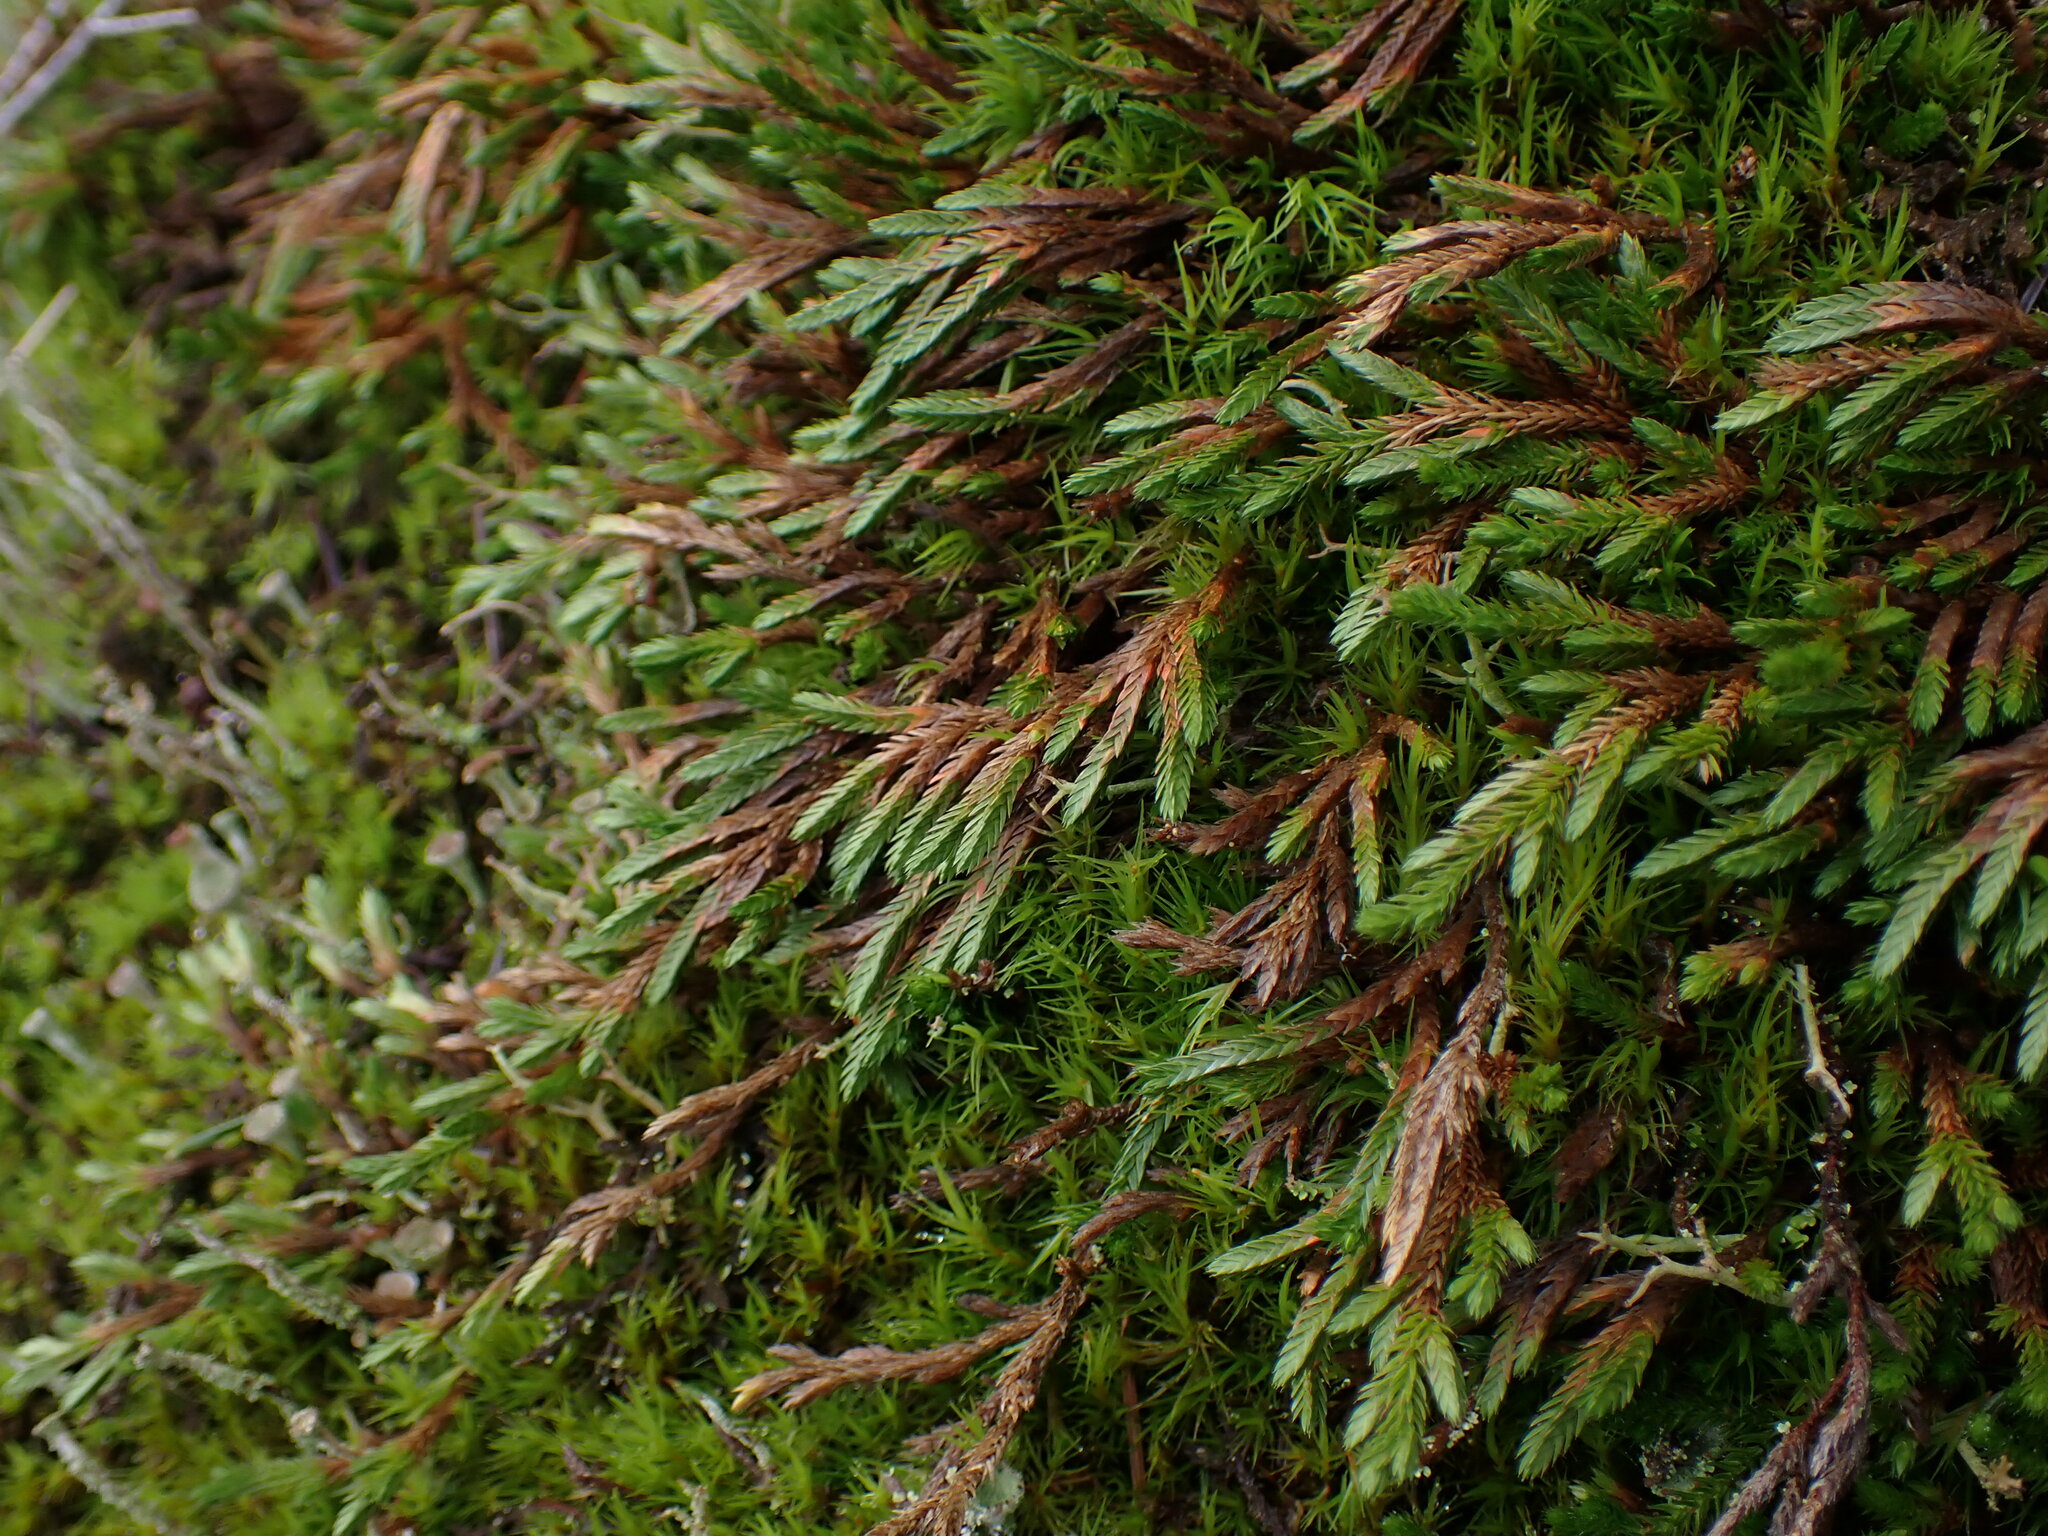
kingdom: Plantae
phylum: Tracheophyta
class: Lycopodiopsida
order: Selaginellales
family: Selaginellaceae
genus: Selaginella
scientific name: Selaginella wallacei
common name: Wallace's selaginella
